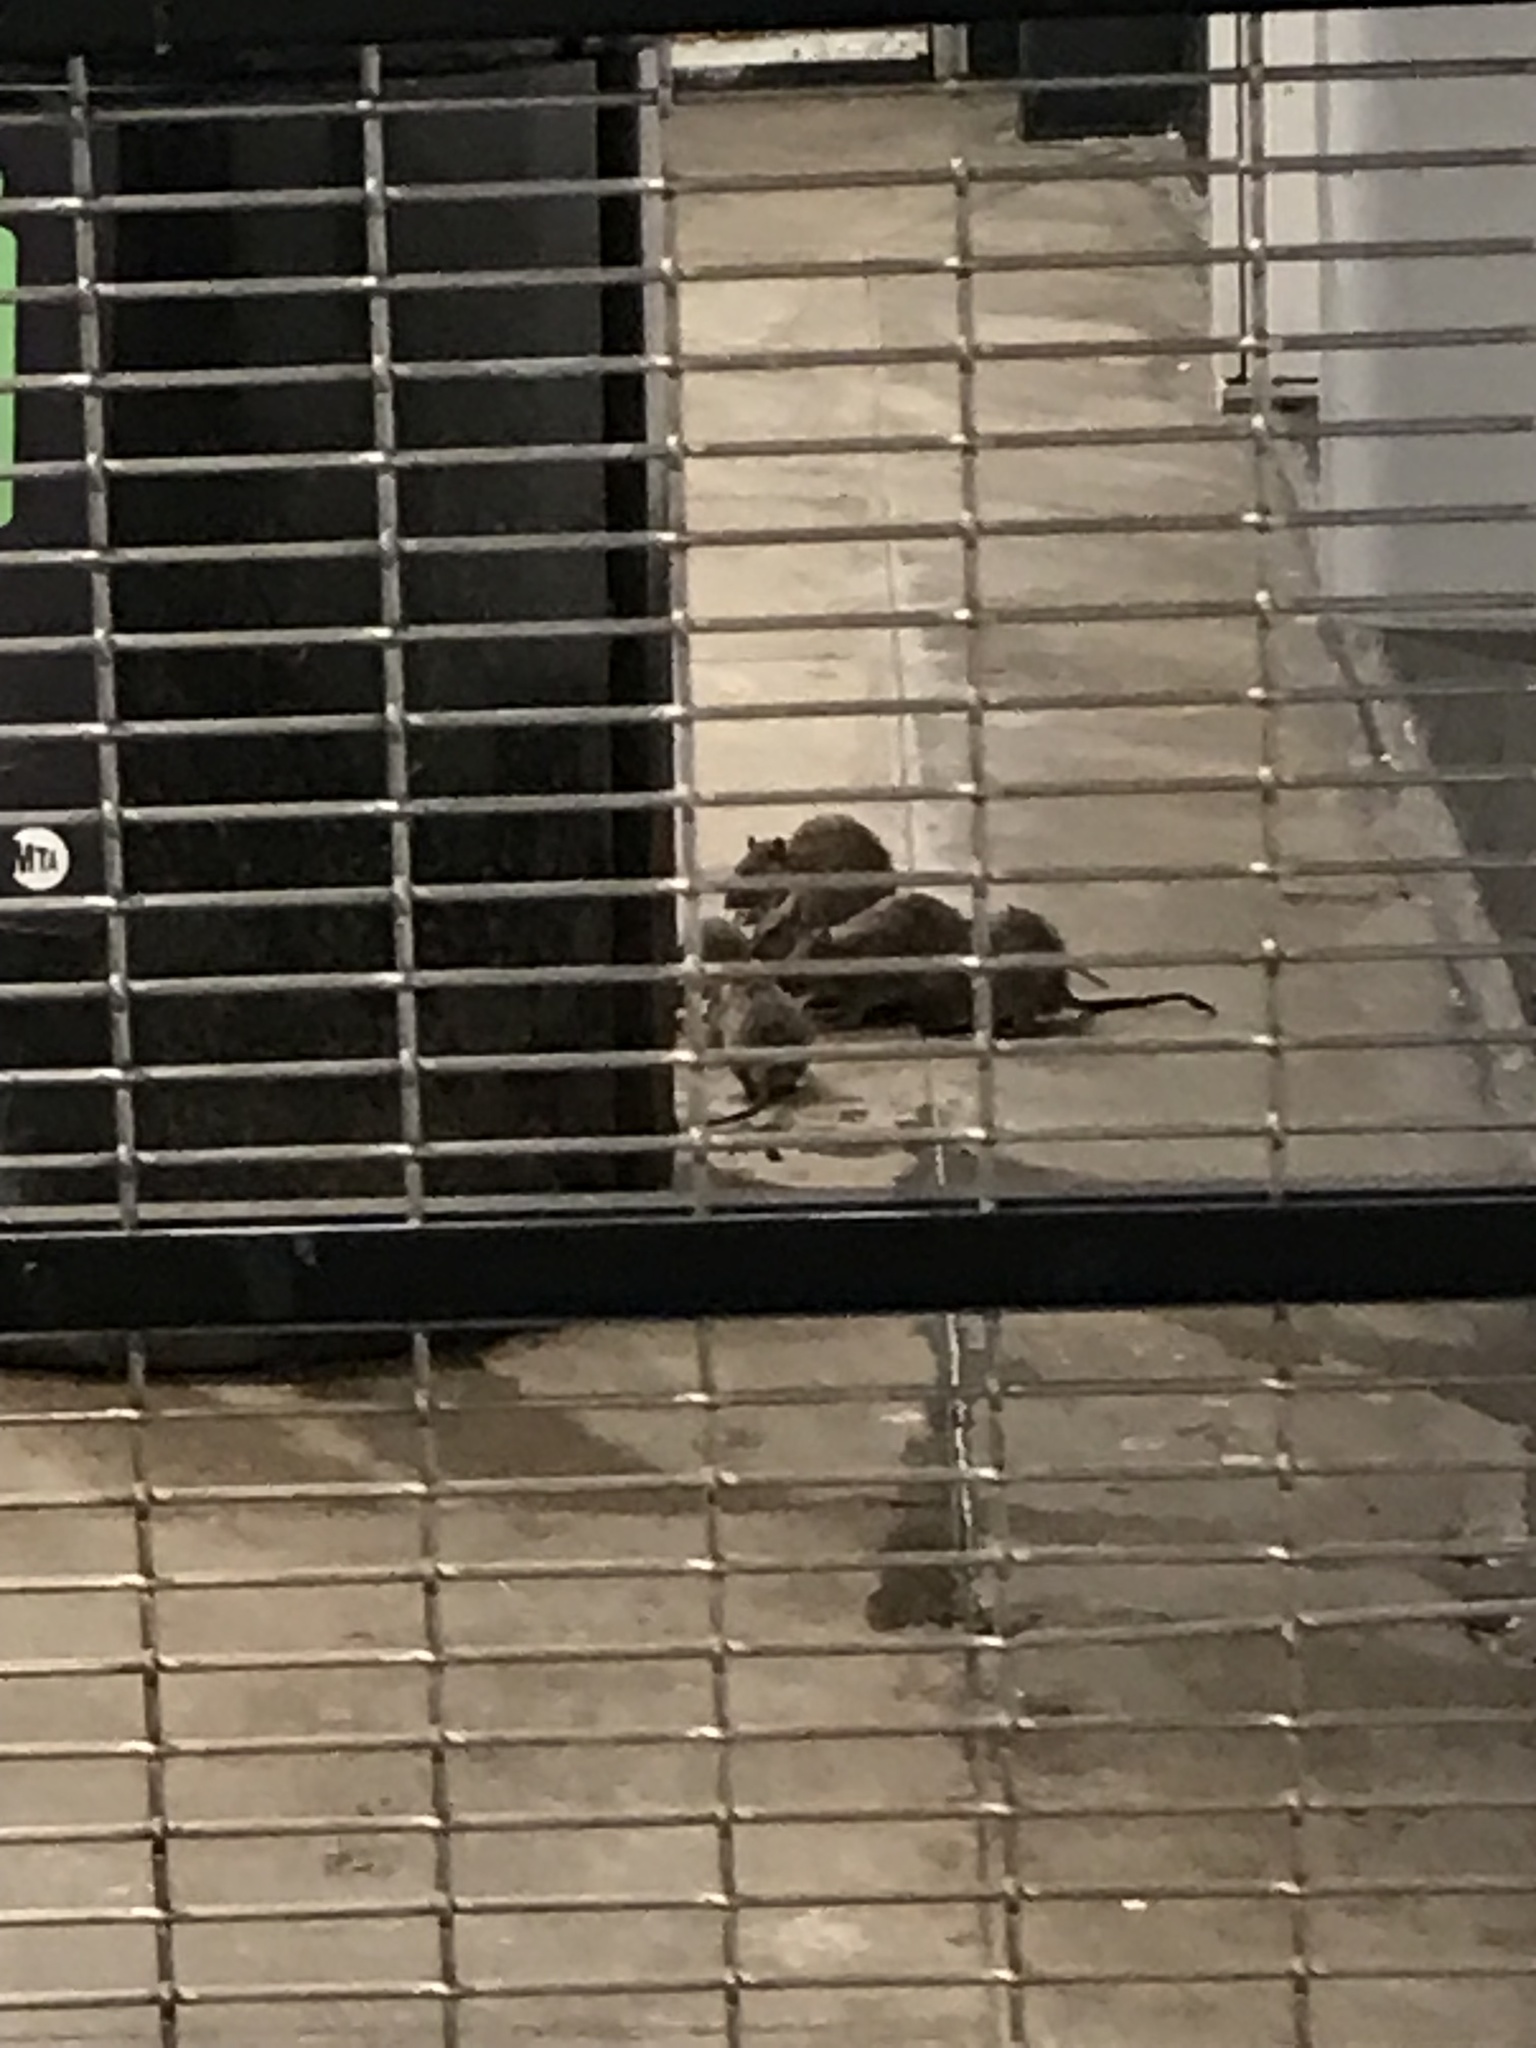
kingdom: Animalia
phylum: Chordata
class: Mammalia
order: Rodentia
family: Muridae
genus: Rattus
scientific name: Rattus norvegicus
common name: Brown rat
